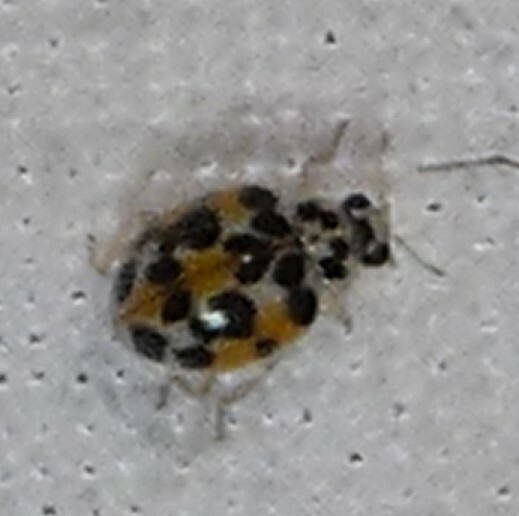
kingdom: Animalia
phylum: Arthropoda
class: Insecta
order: Coleoptera
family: Coccinellidae
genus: Psyllobora
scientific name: Psyllobora vigintimaculata
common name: Ladybird beetle
